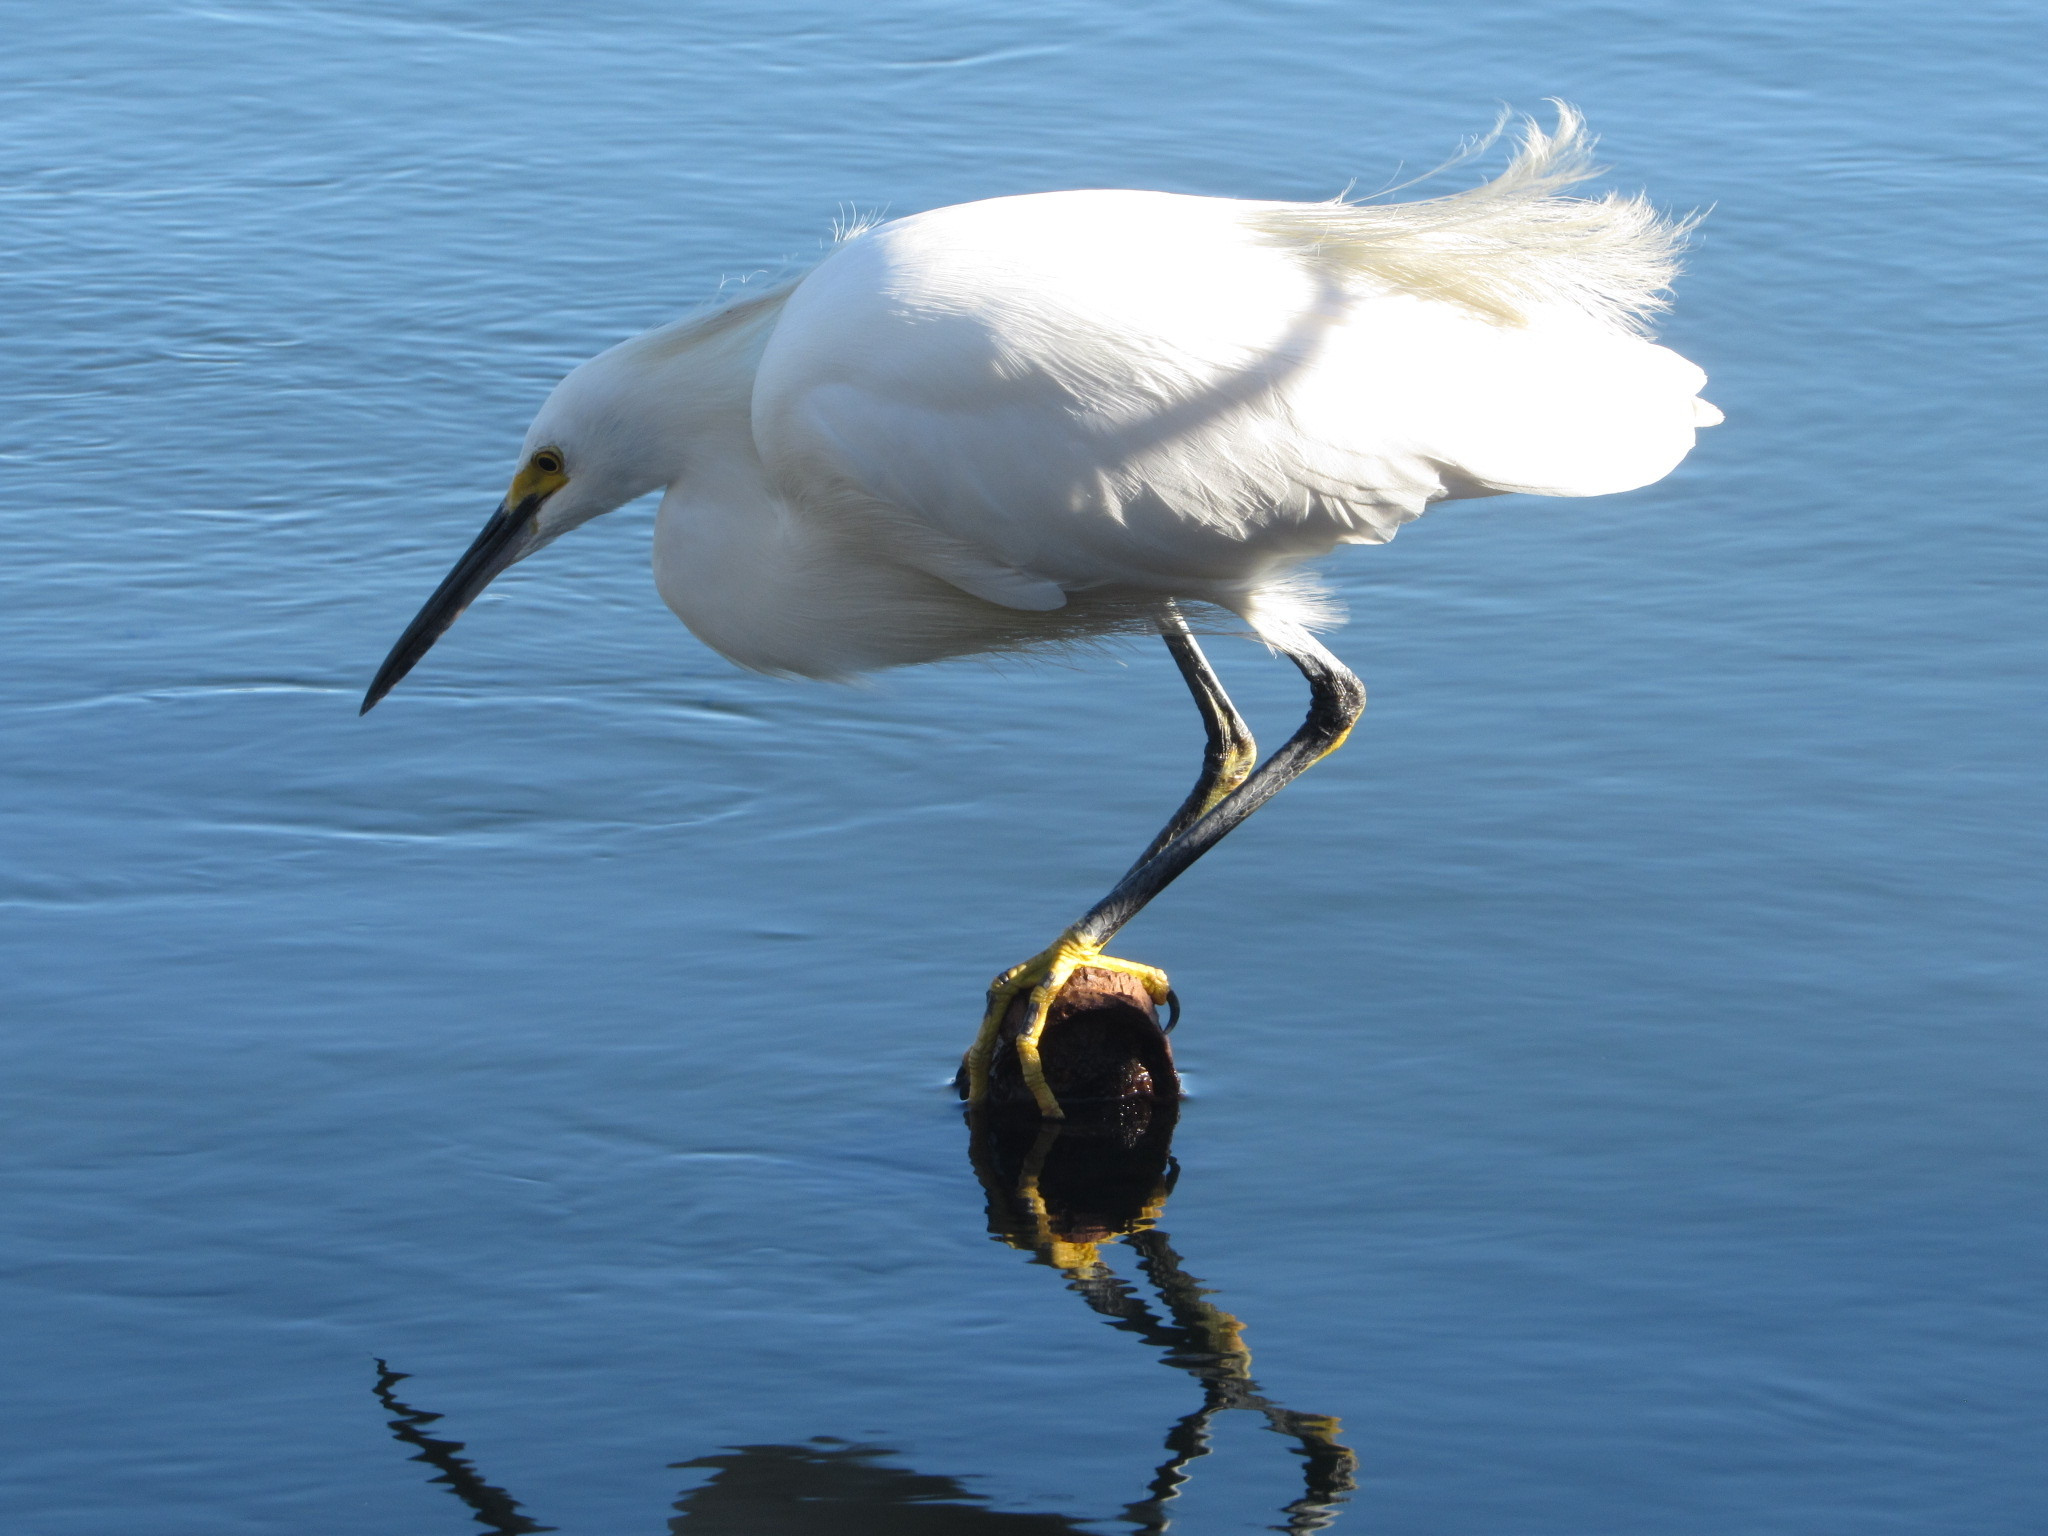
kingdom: Animalia
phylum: Chordata
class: Aves
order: Pelecaniformes
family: Ardeidae
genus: Egretta
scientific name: Egretta thula
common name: Snowy egret
